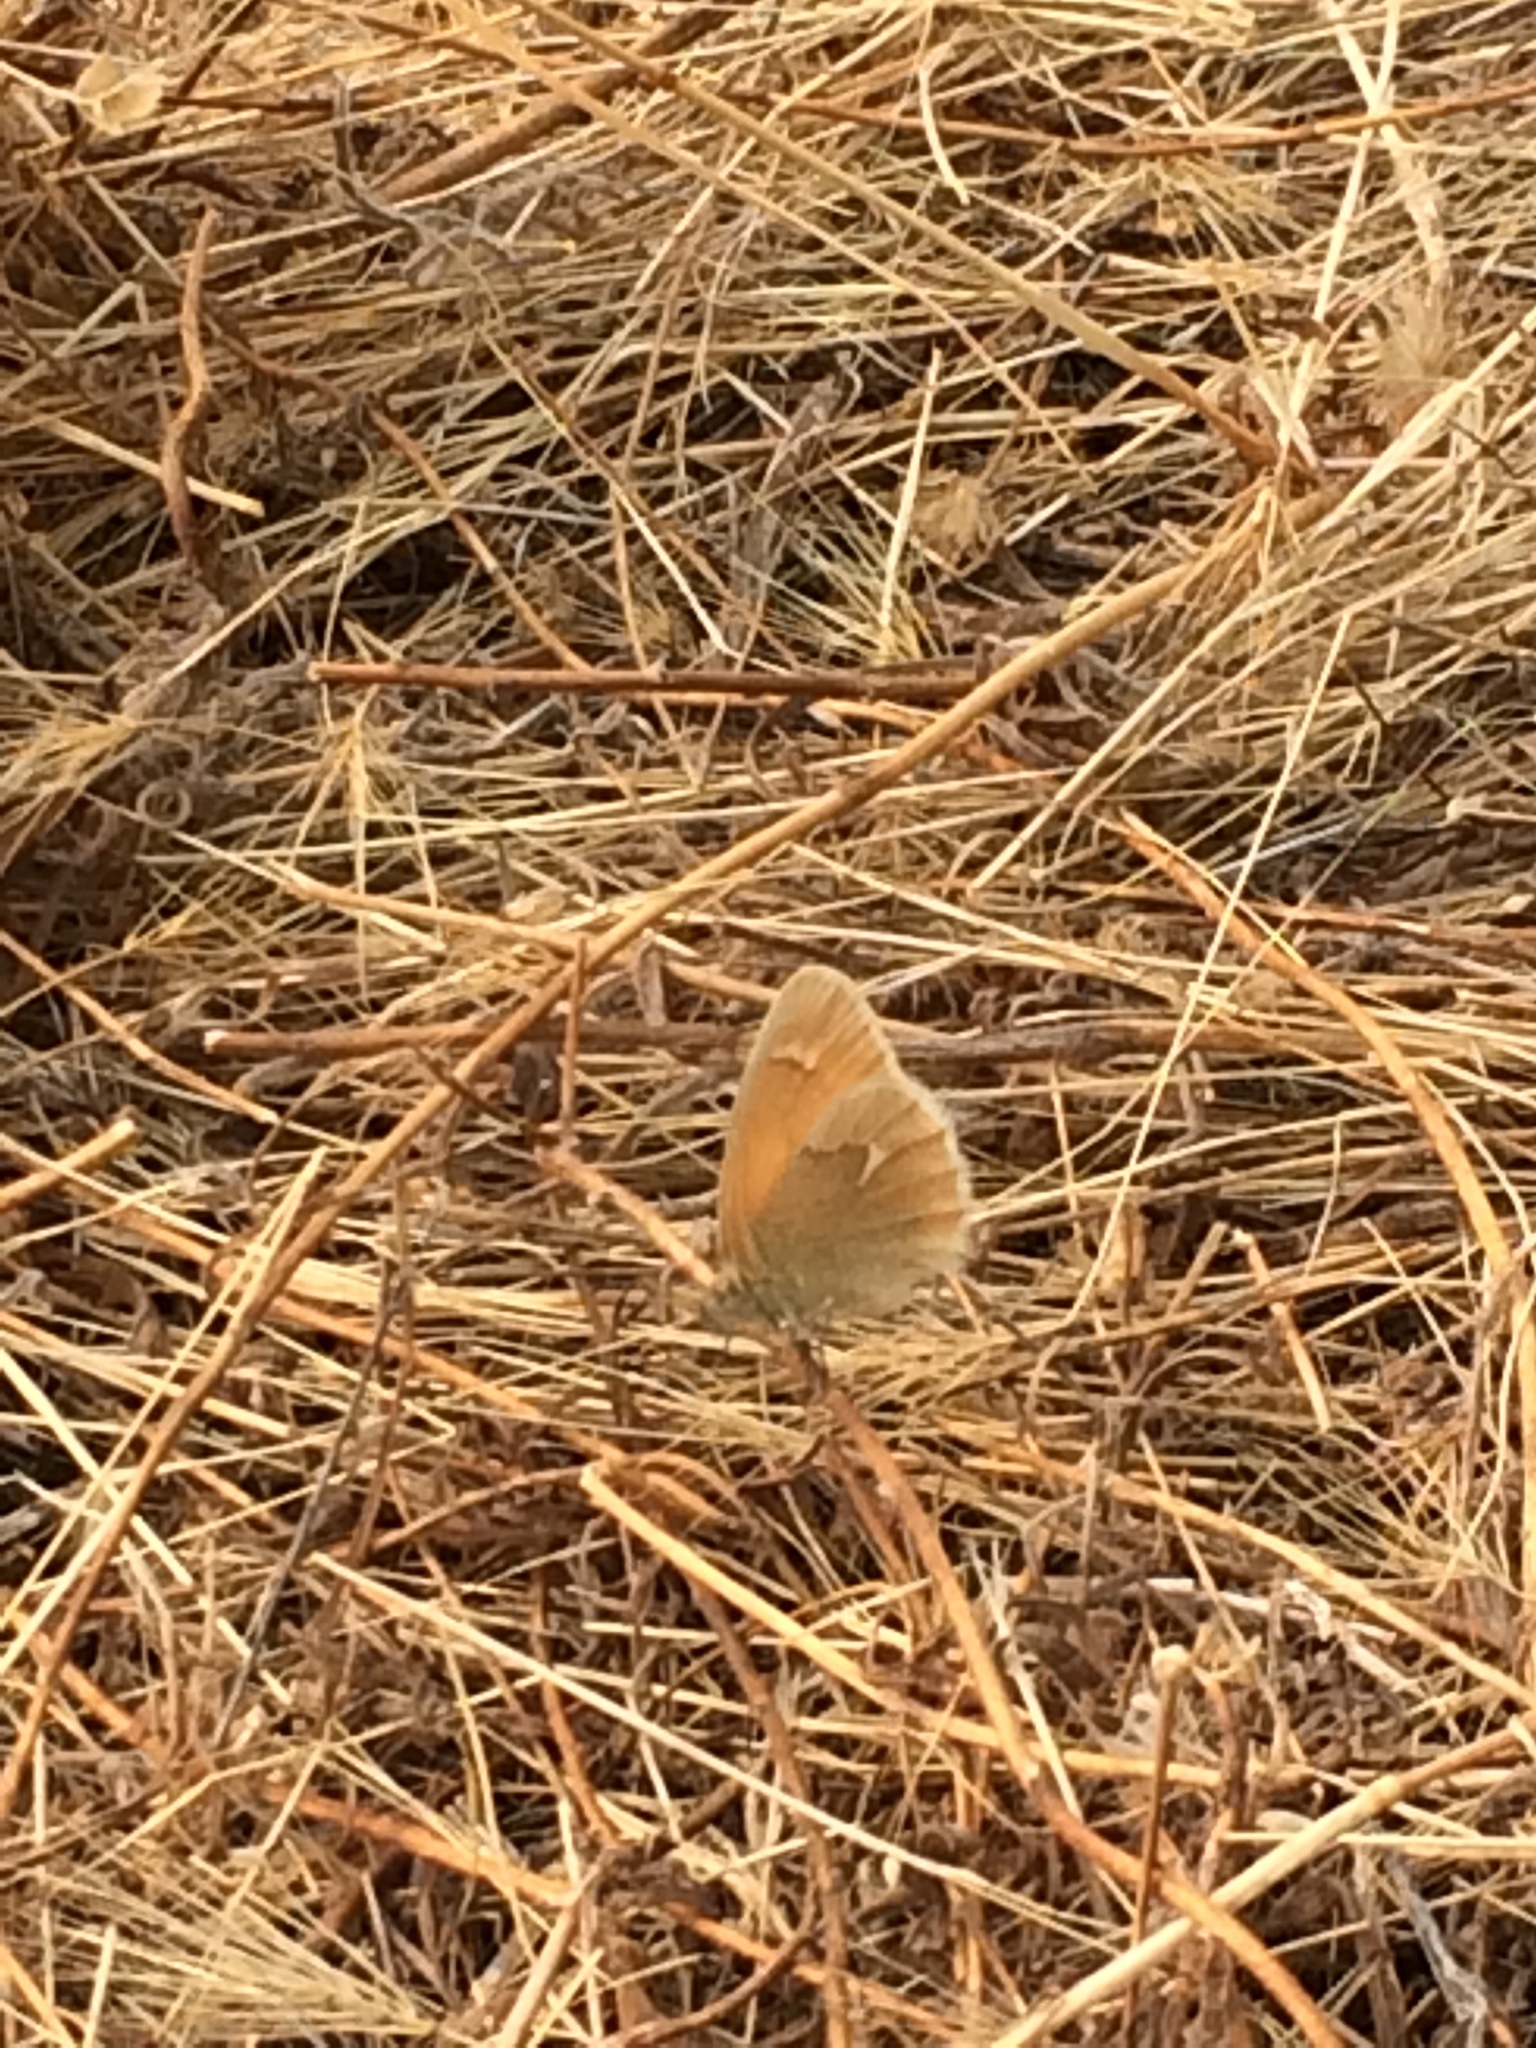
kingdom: Animalia
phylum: Arthropoda
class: Insecta
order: Lepidoptera
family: Nymphalidae
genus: Coenonympha
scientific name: Coenonympha california
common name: Common ringlet
